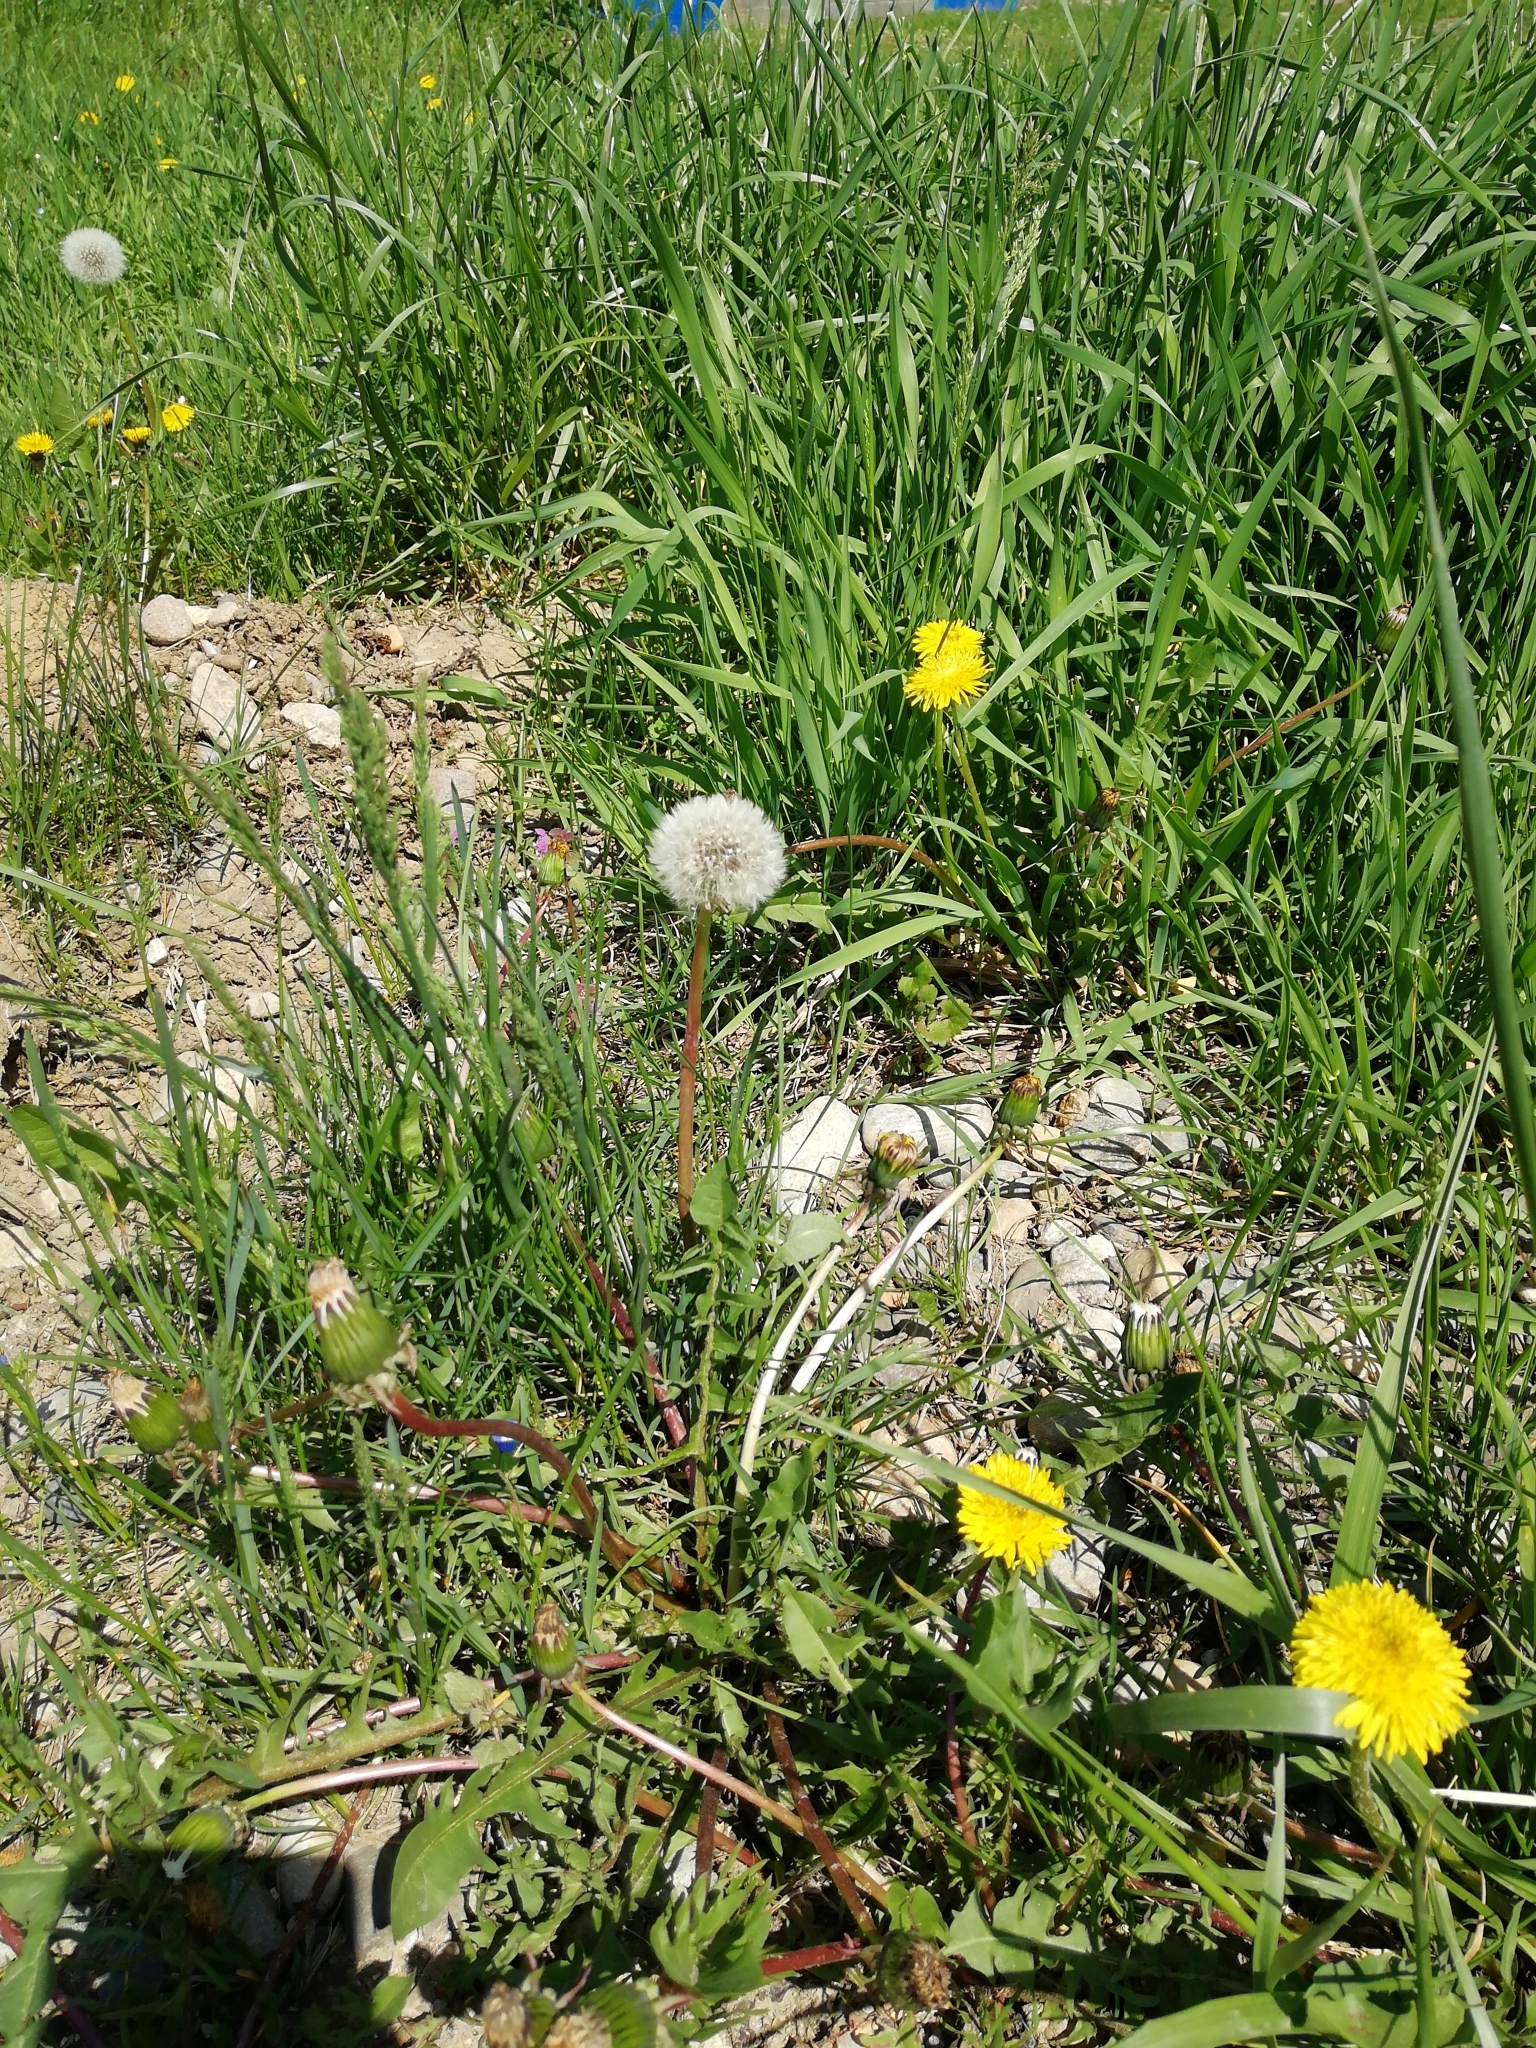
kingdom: Plantae
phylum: Tracheophyta
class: Magnoliopsida
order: Asterales
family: Asteraceae
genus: Taraxacum
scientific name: Taraxacum officinale
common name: Common dandelion
